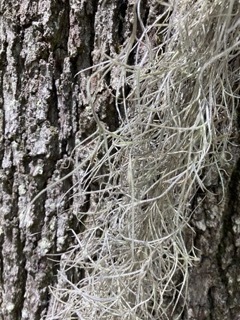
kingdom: Plantae
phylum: Tracheophyta
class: Liliopsida
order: Poales
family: Bromeliaceae
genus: Tillandsia
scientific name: Tillandsia usneoides
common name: Spanish moss
